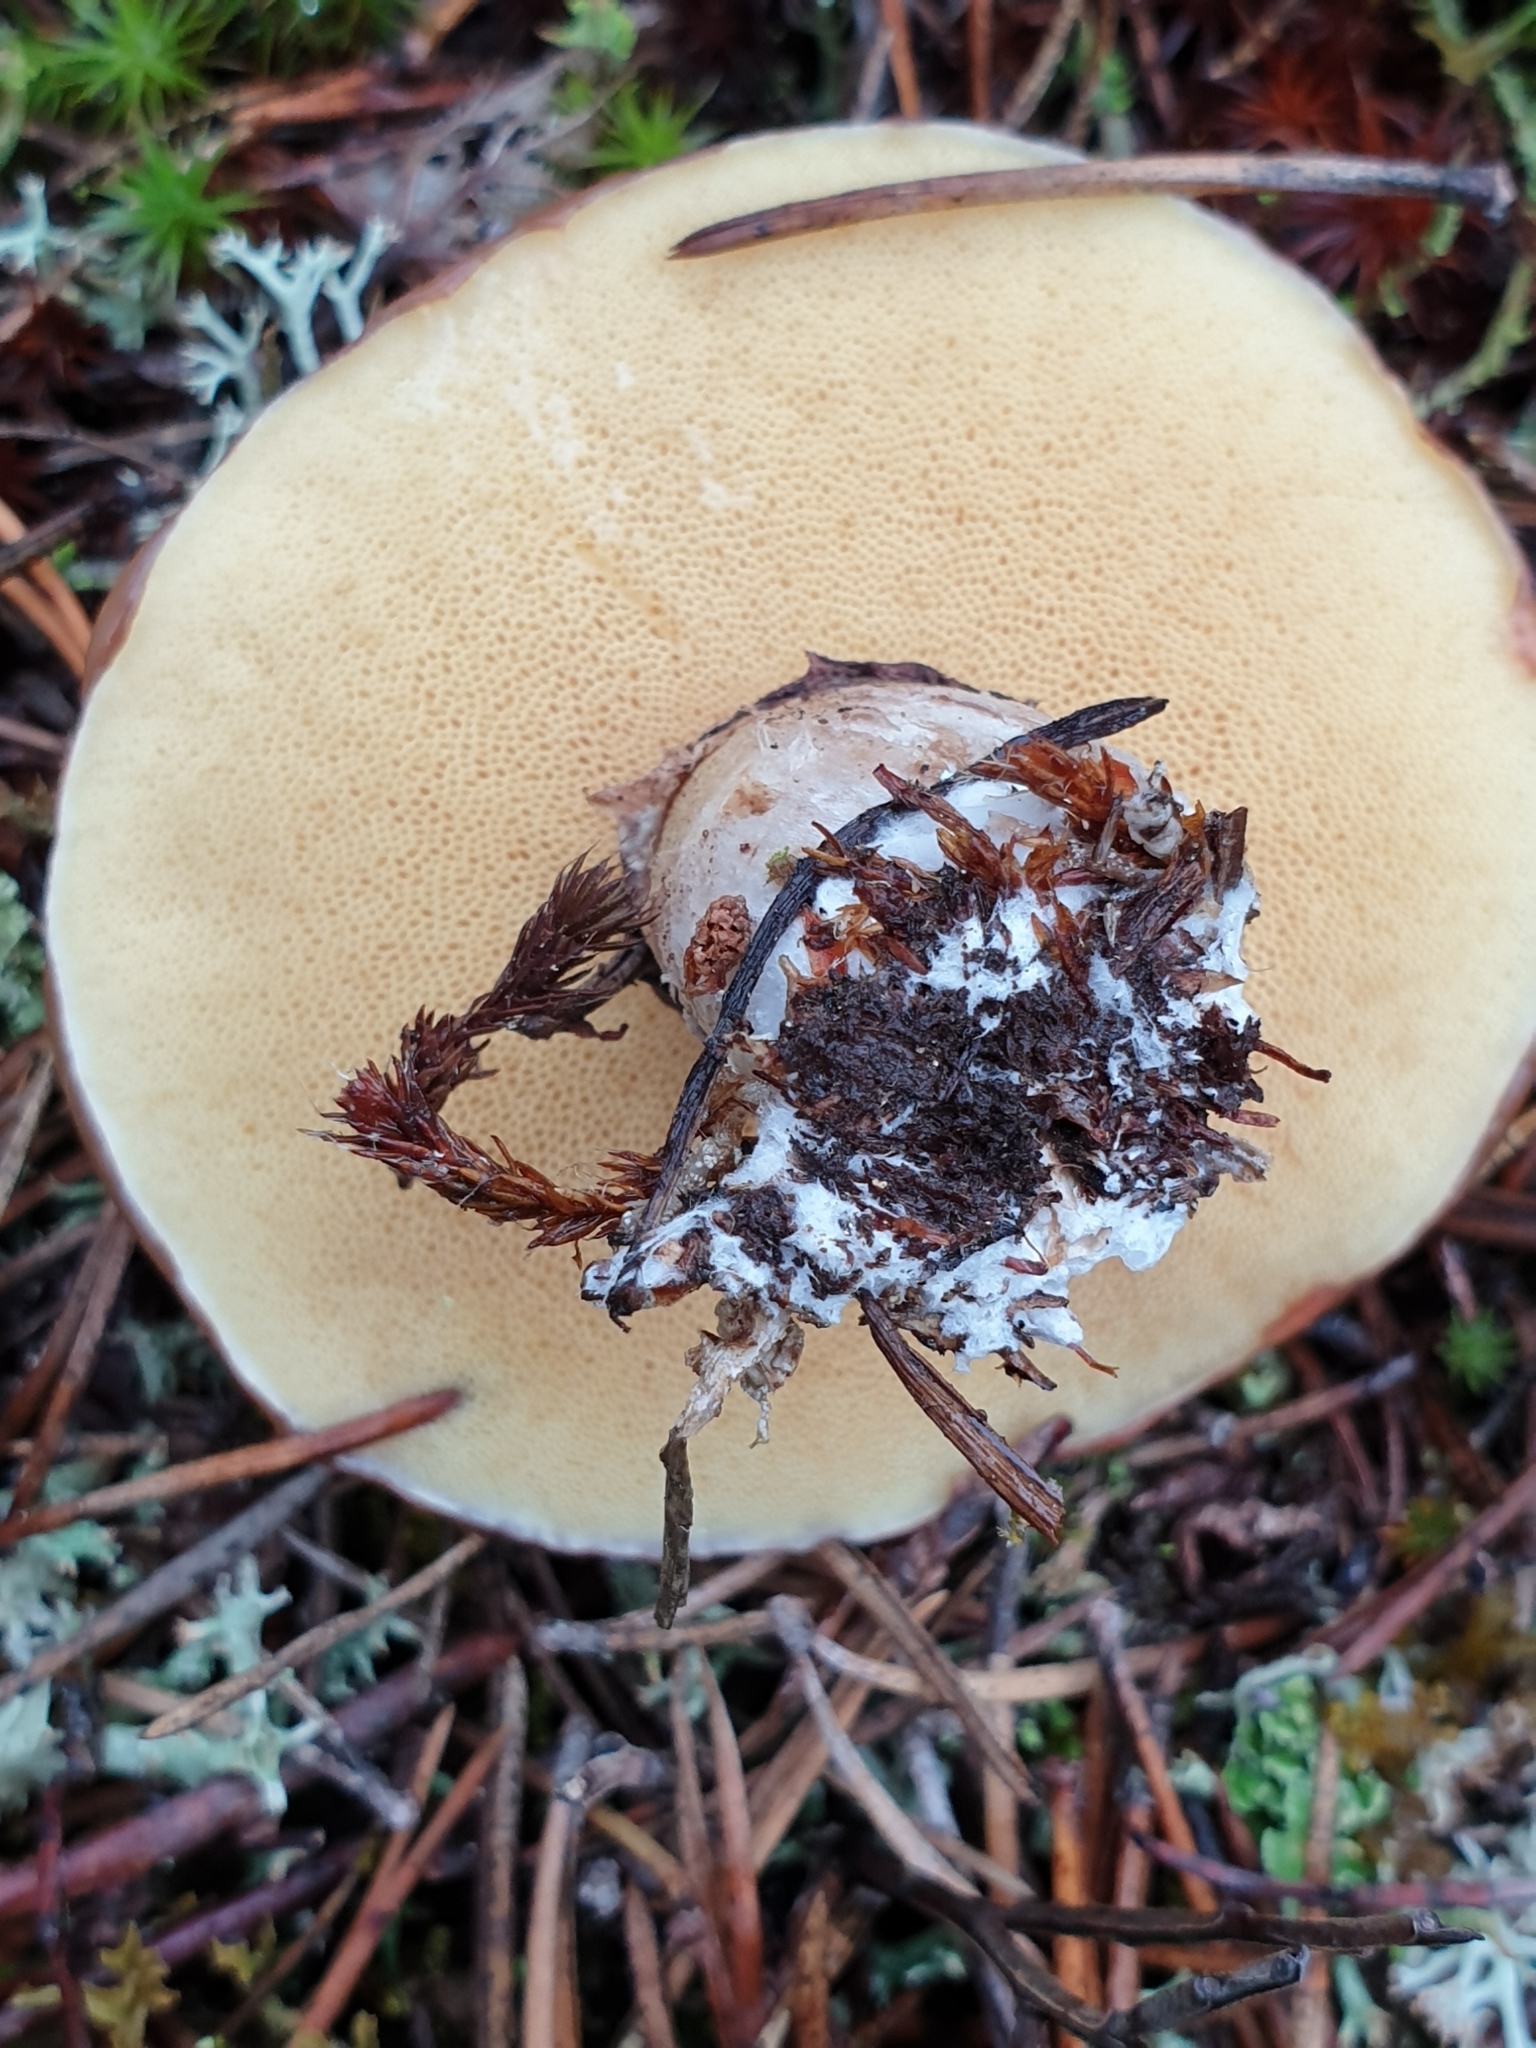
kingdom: Fungi
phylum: Basidiomycota
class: Agaricomycetes
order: Boletales
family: Suillaceae
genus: Suillus
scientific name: Suillus luteus
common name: Slippery jack
